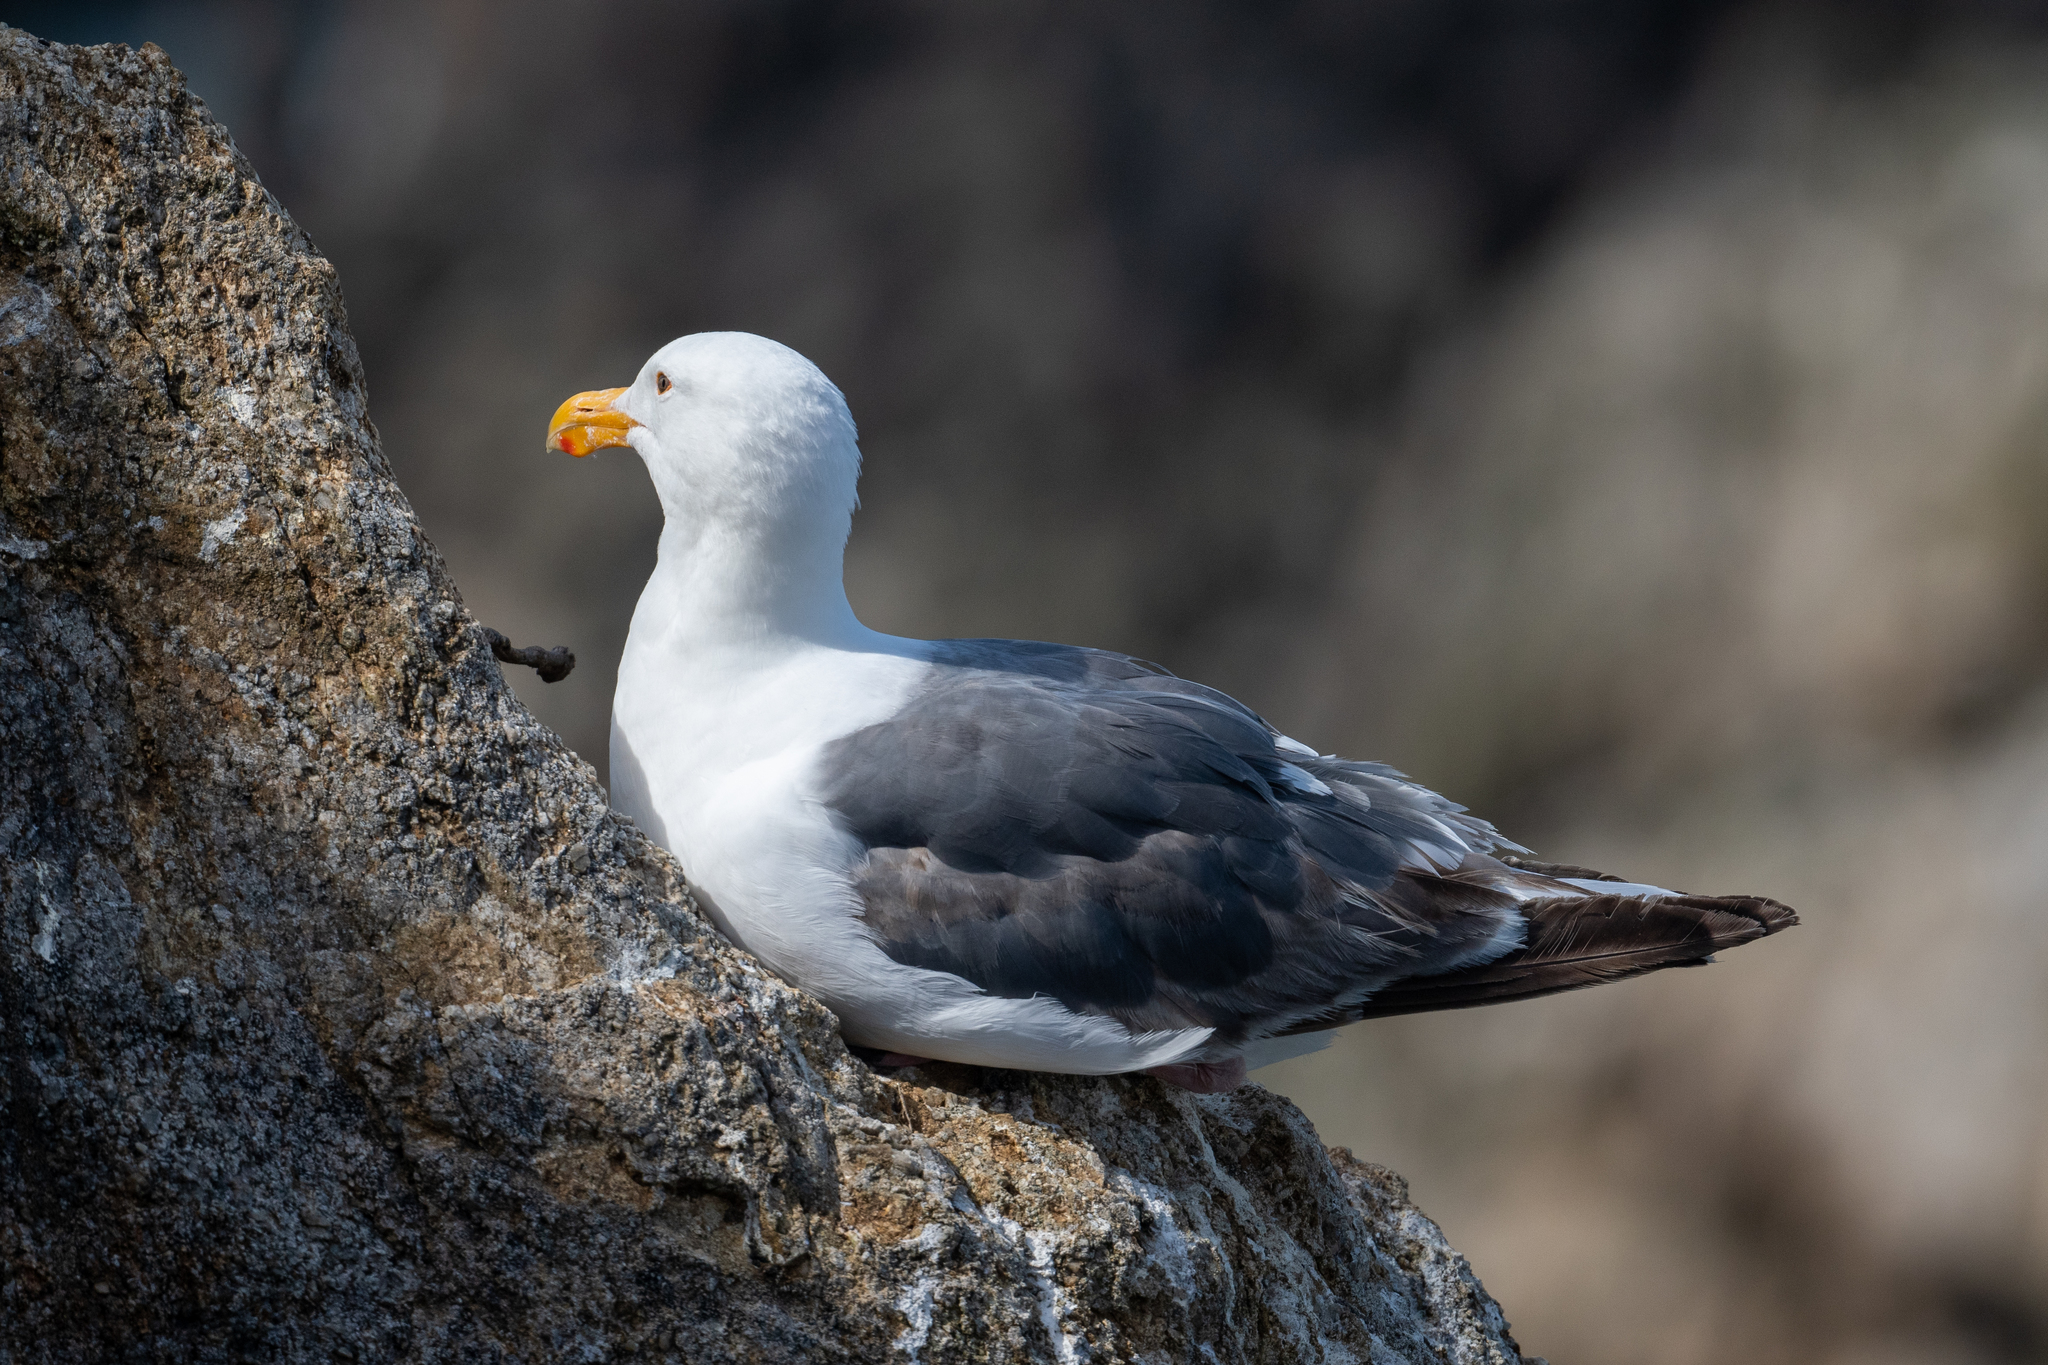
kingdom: Animalia
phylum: Chordata
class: Aves
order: Charadriiformes
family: Laridae
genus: Larus
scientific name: Larus occidentalis
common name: Western gull
